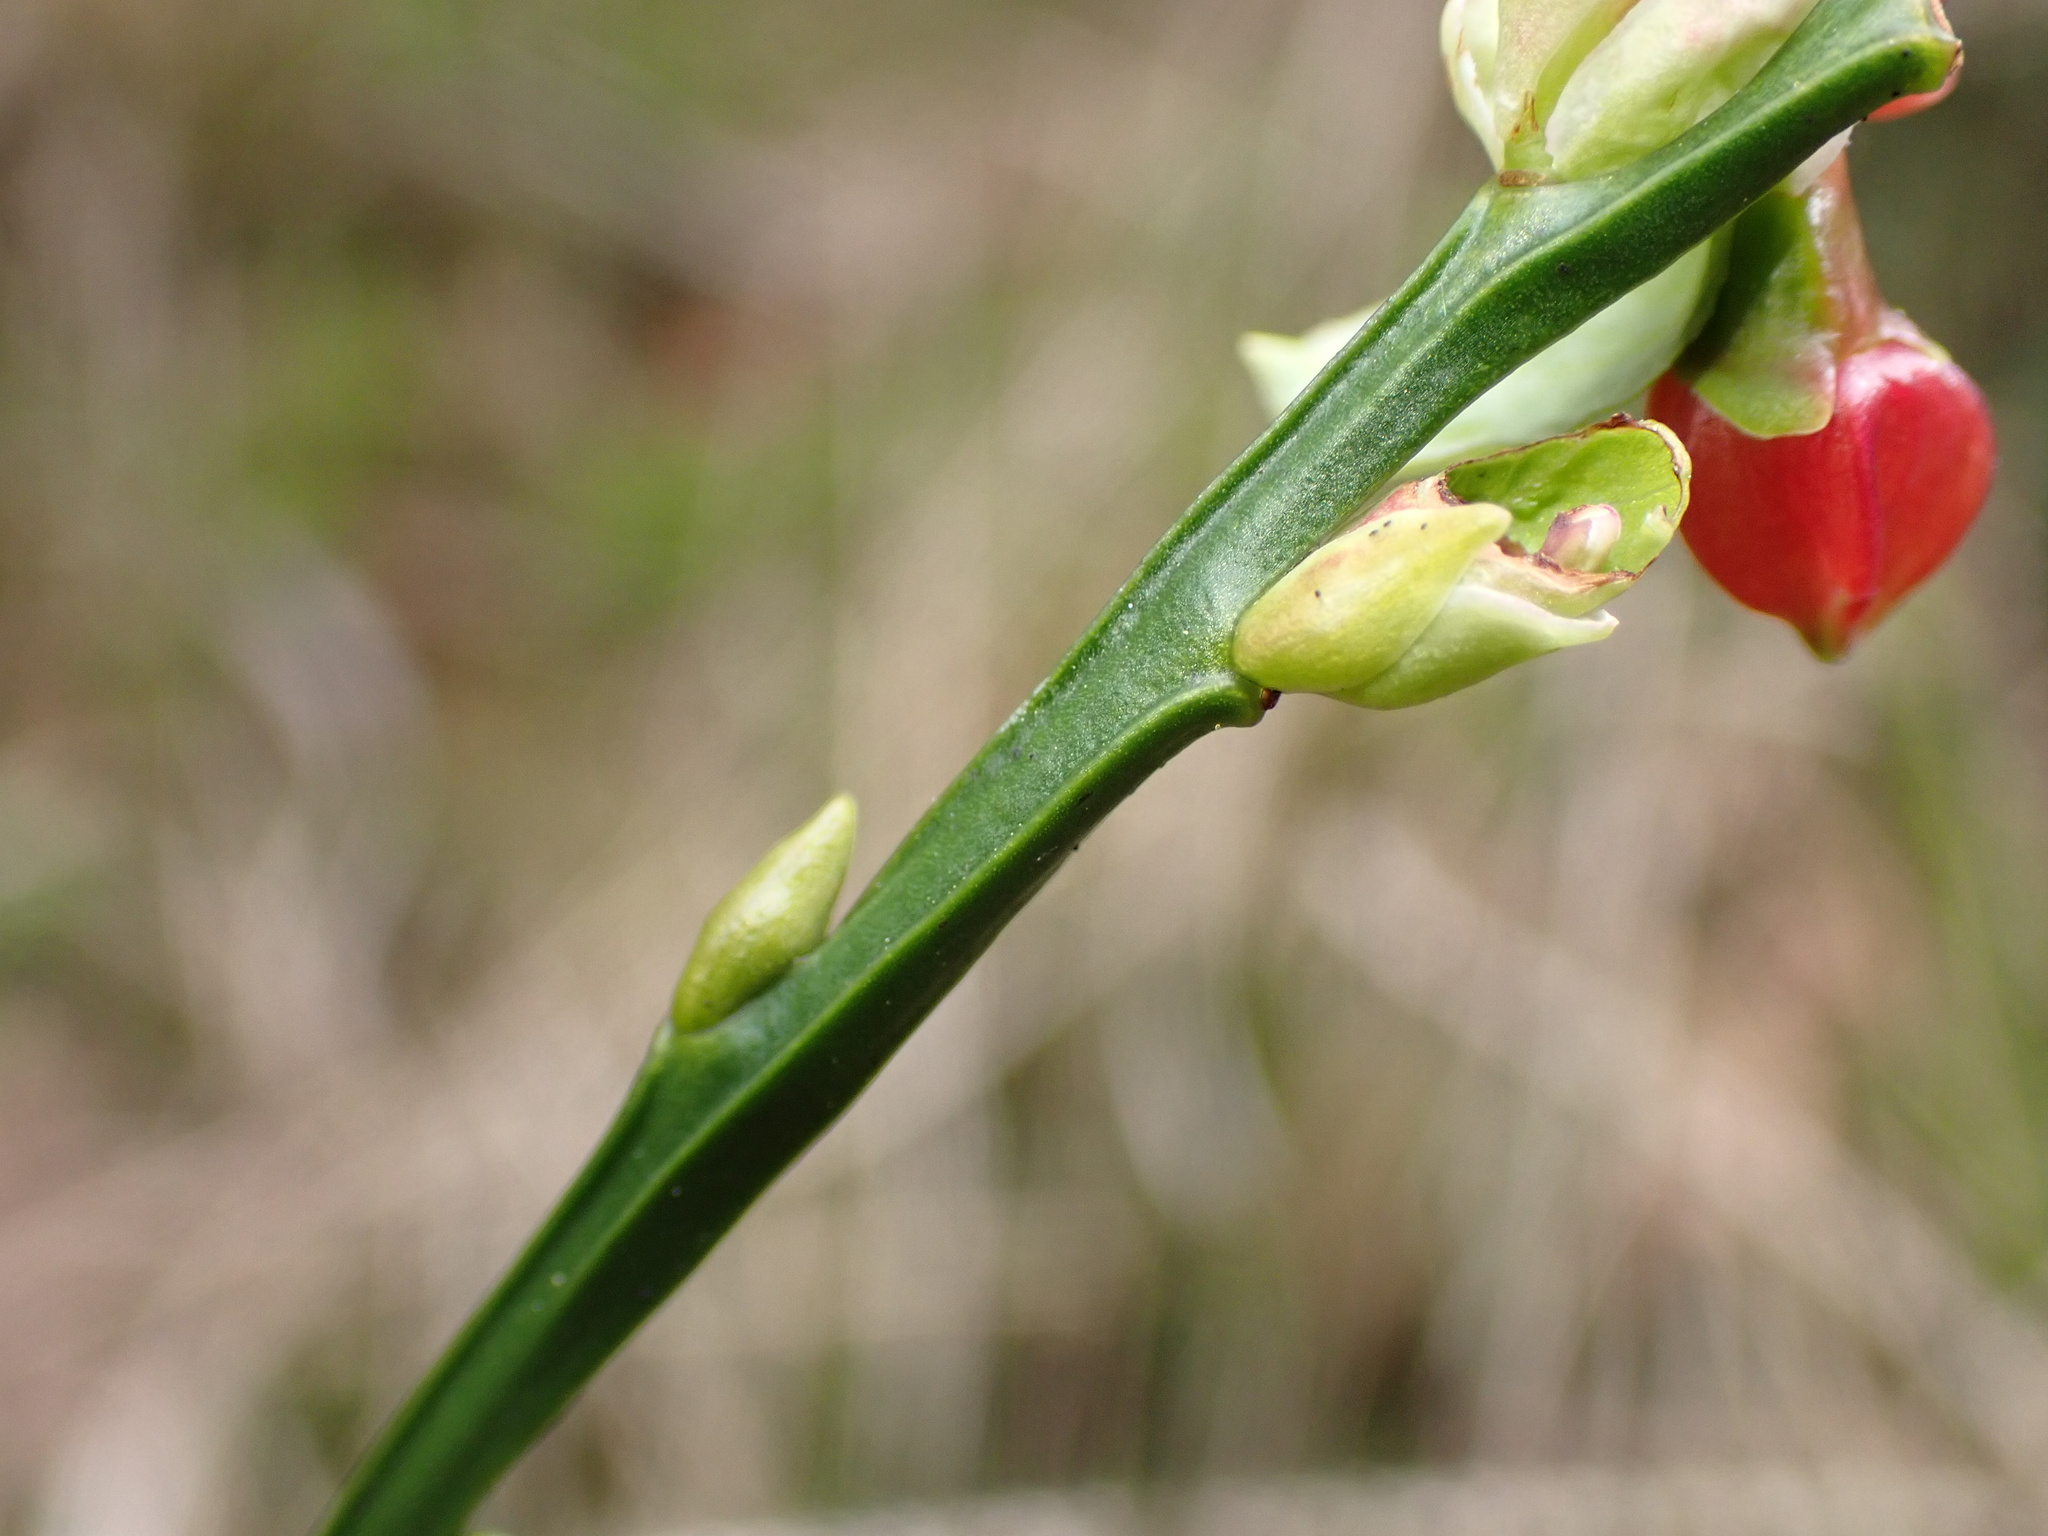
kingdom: Plantae
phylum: Tracheophyta
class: Magnoliopsida
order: Ericales
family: Ericaceae
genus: Vaccinium
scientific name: Vaccinium myrtillus
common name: Bilberry
